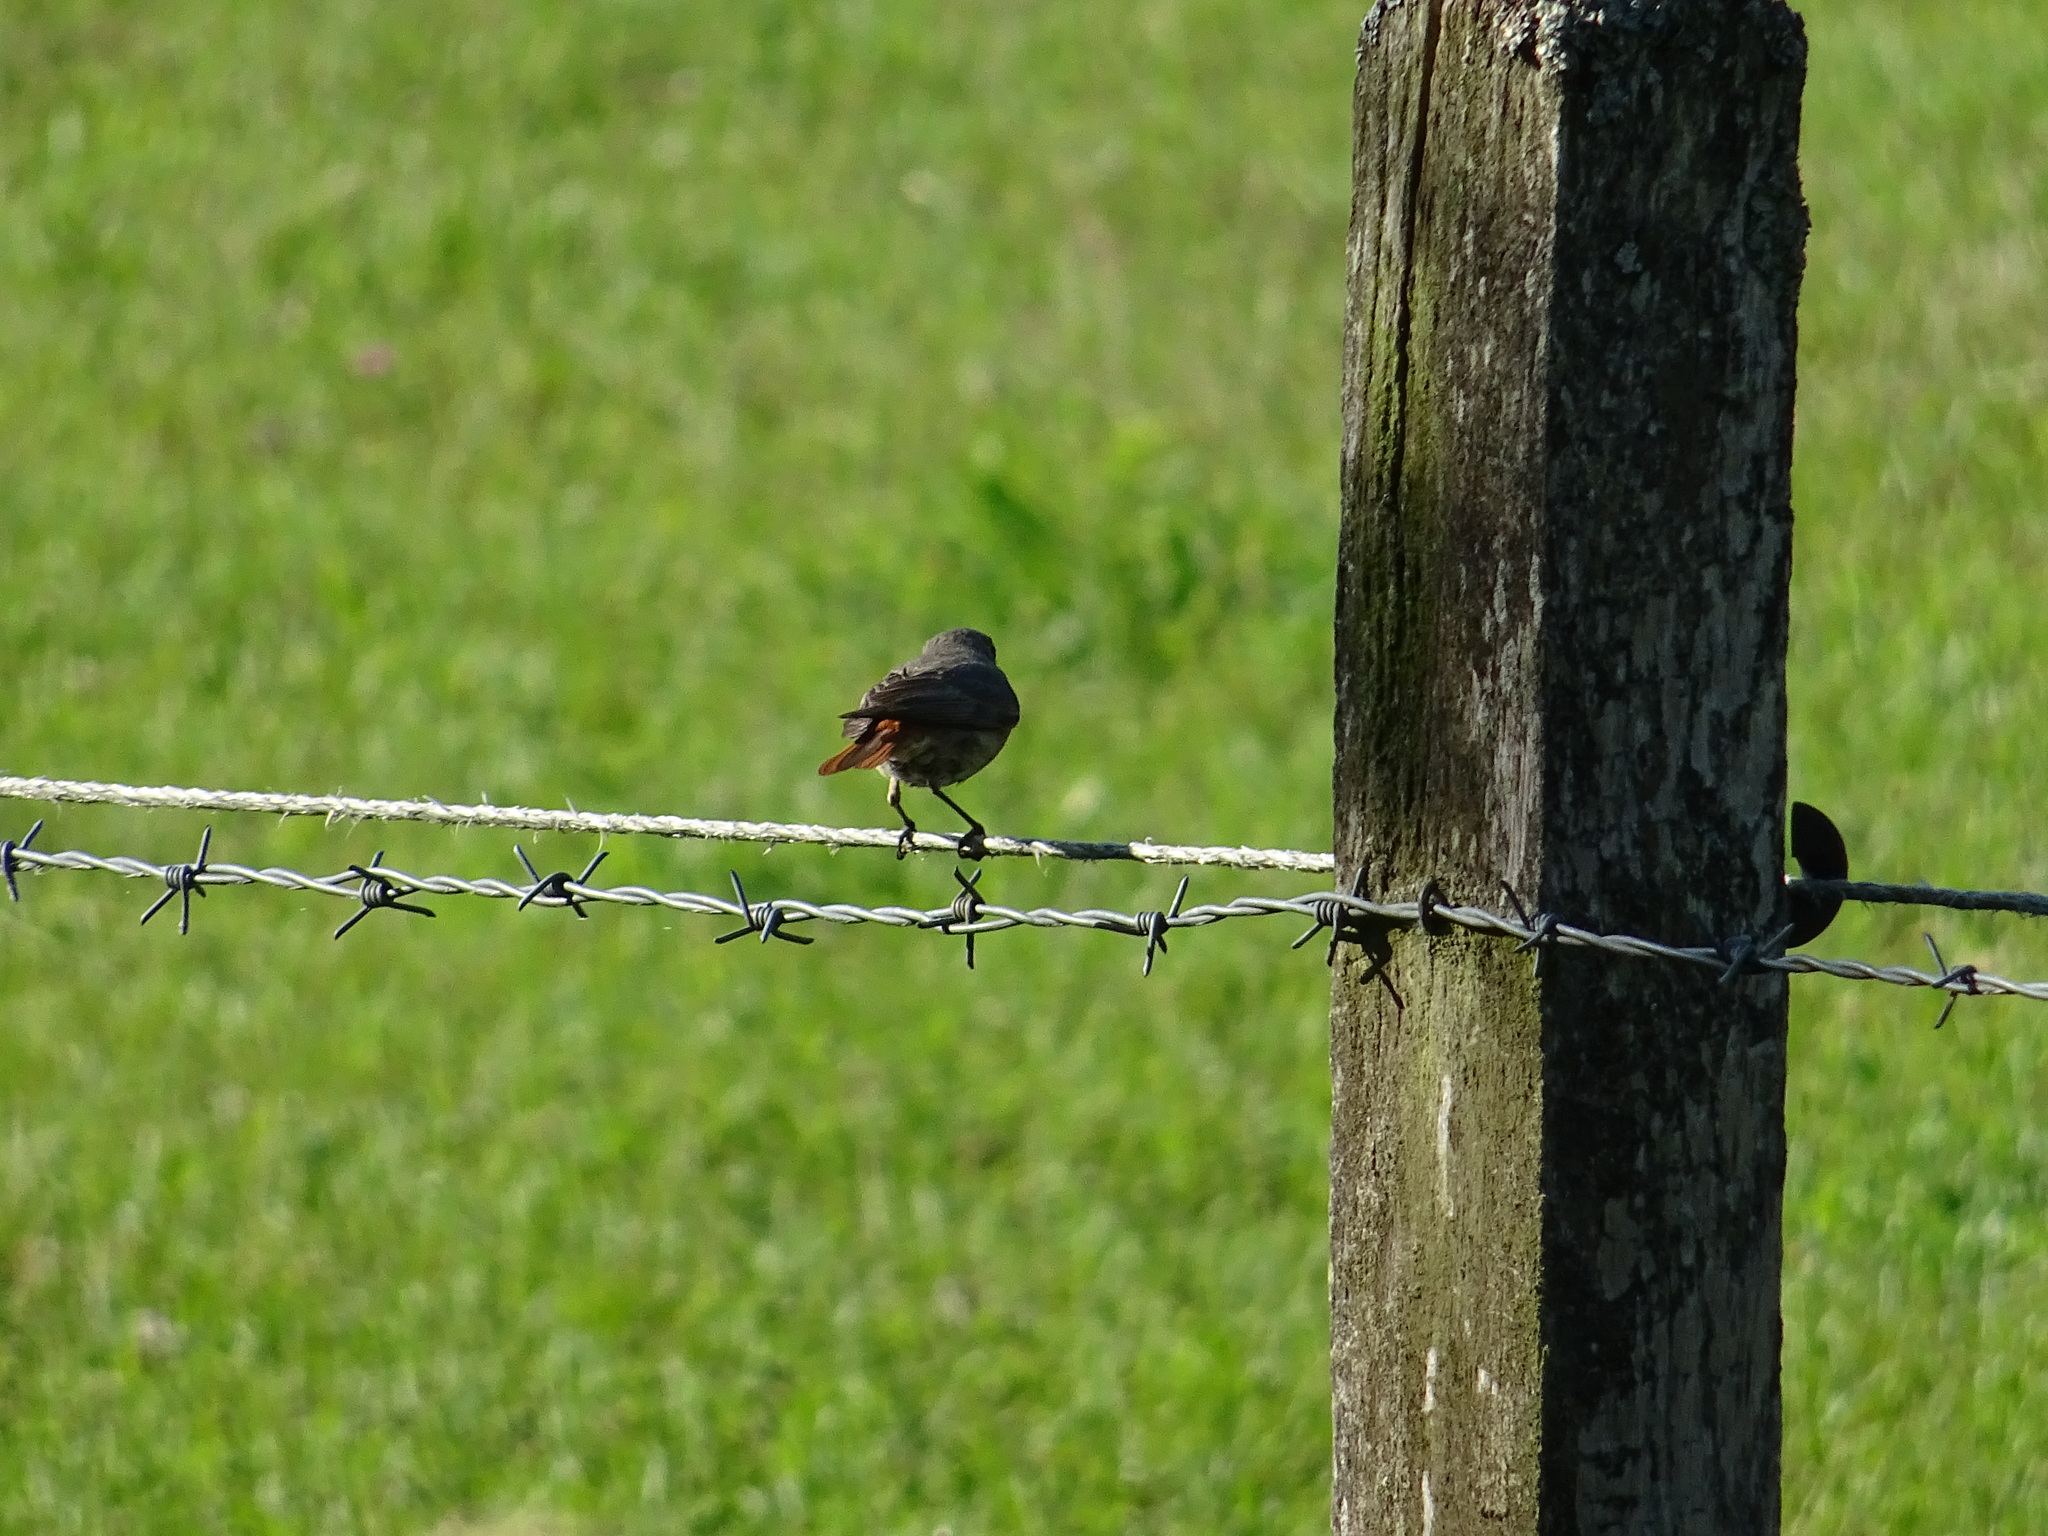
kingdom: Animalia
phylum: Chordata
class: Aves
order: Passeriformes
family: Muscicapidae
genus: Phoenicurus
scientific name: Phoenicurus ochruros
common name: Black redstart
